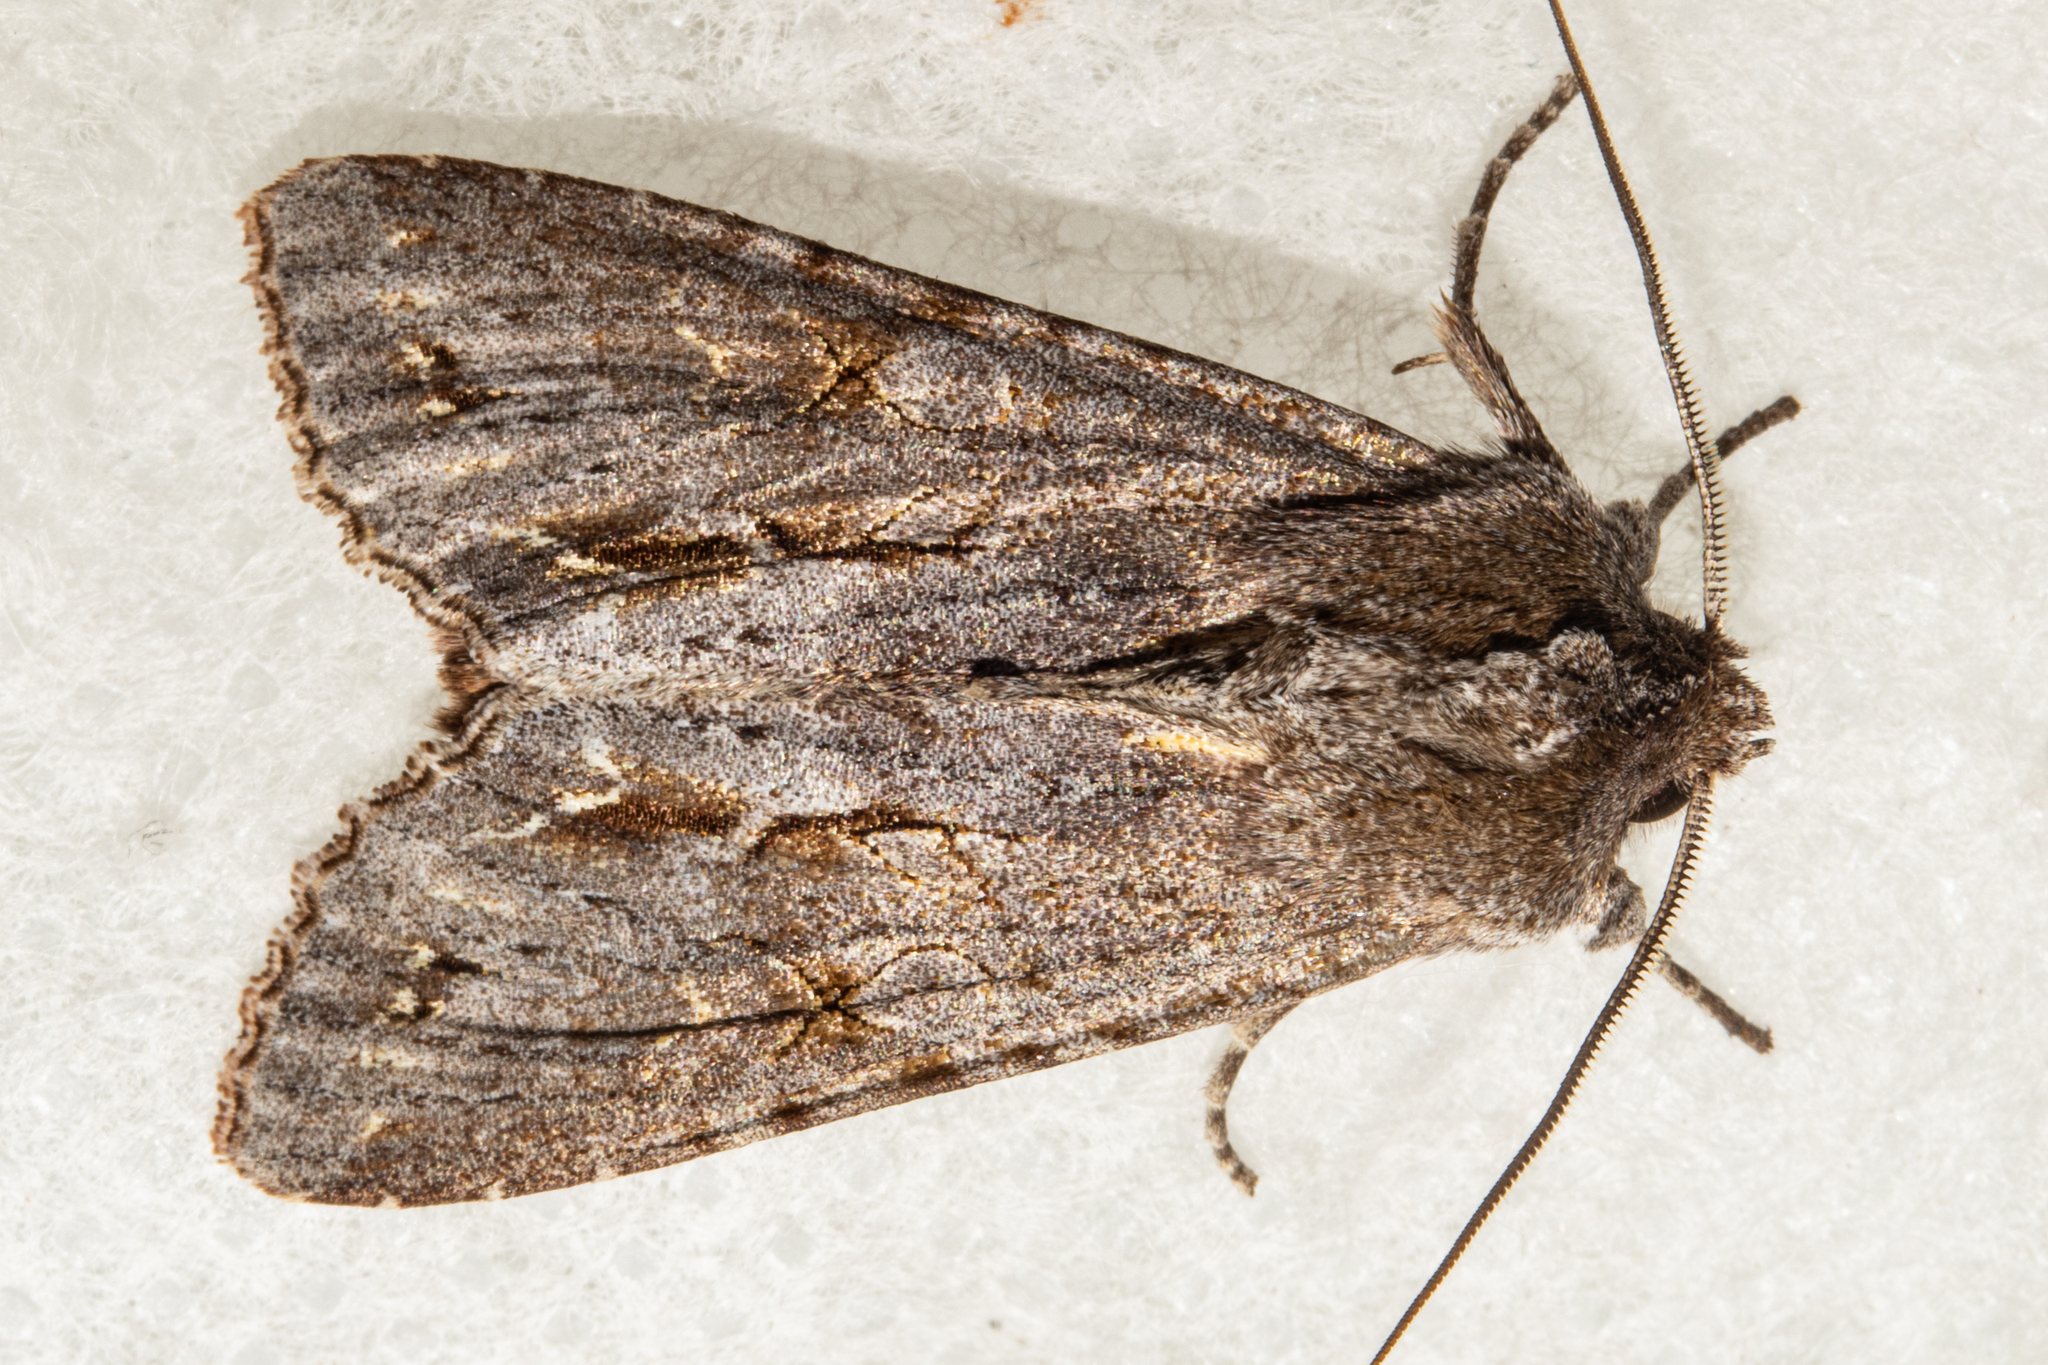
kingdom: Animalia
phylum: Arthropoda
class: Insecta
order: Lepidoptera
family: Noctuidae
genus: Ichneutica
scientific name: Ichneutica
